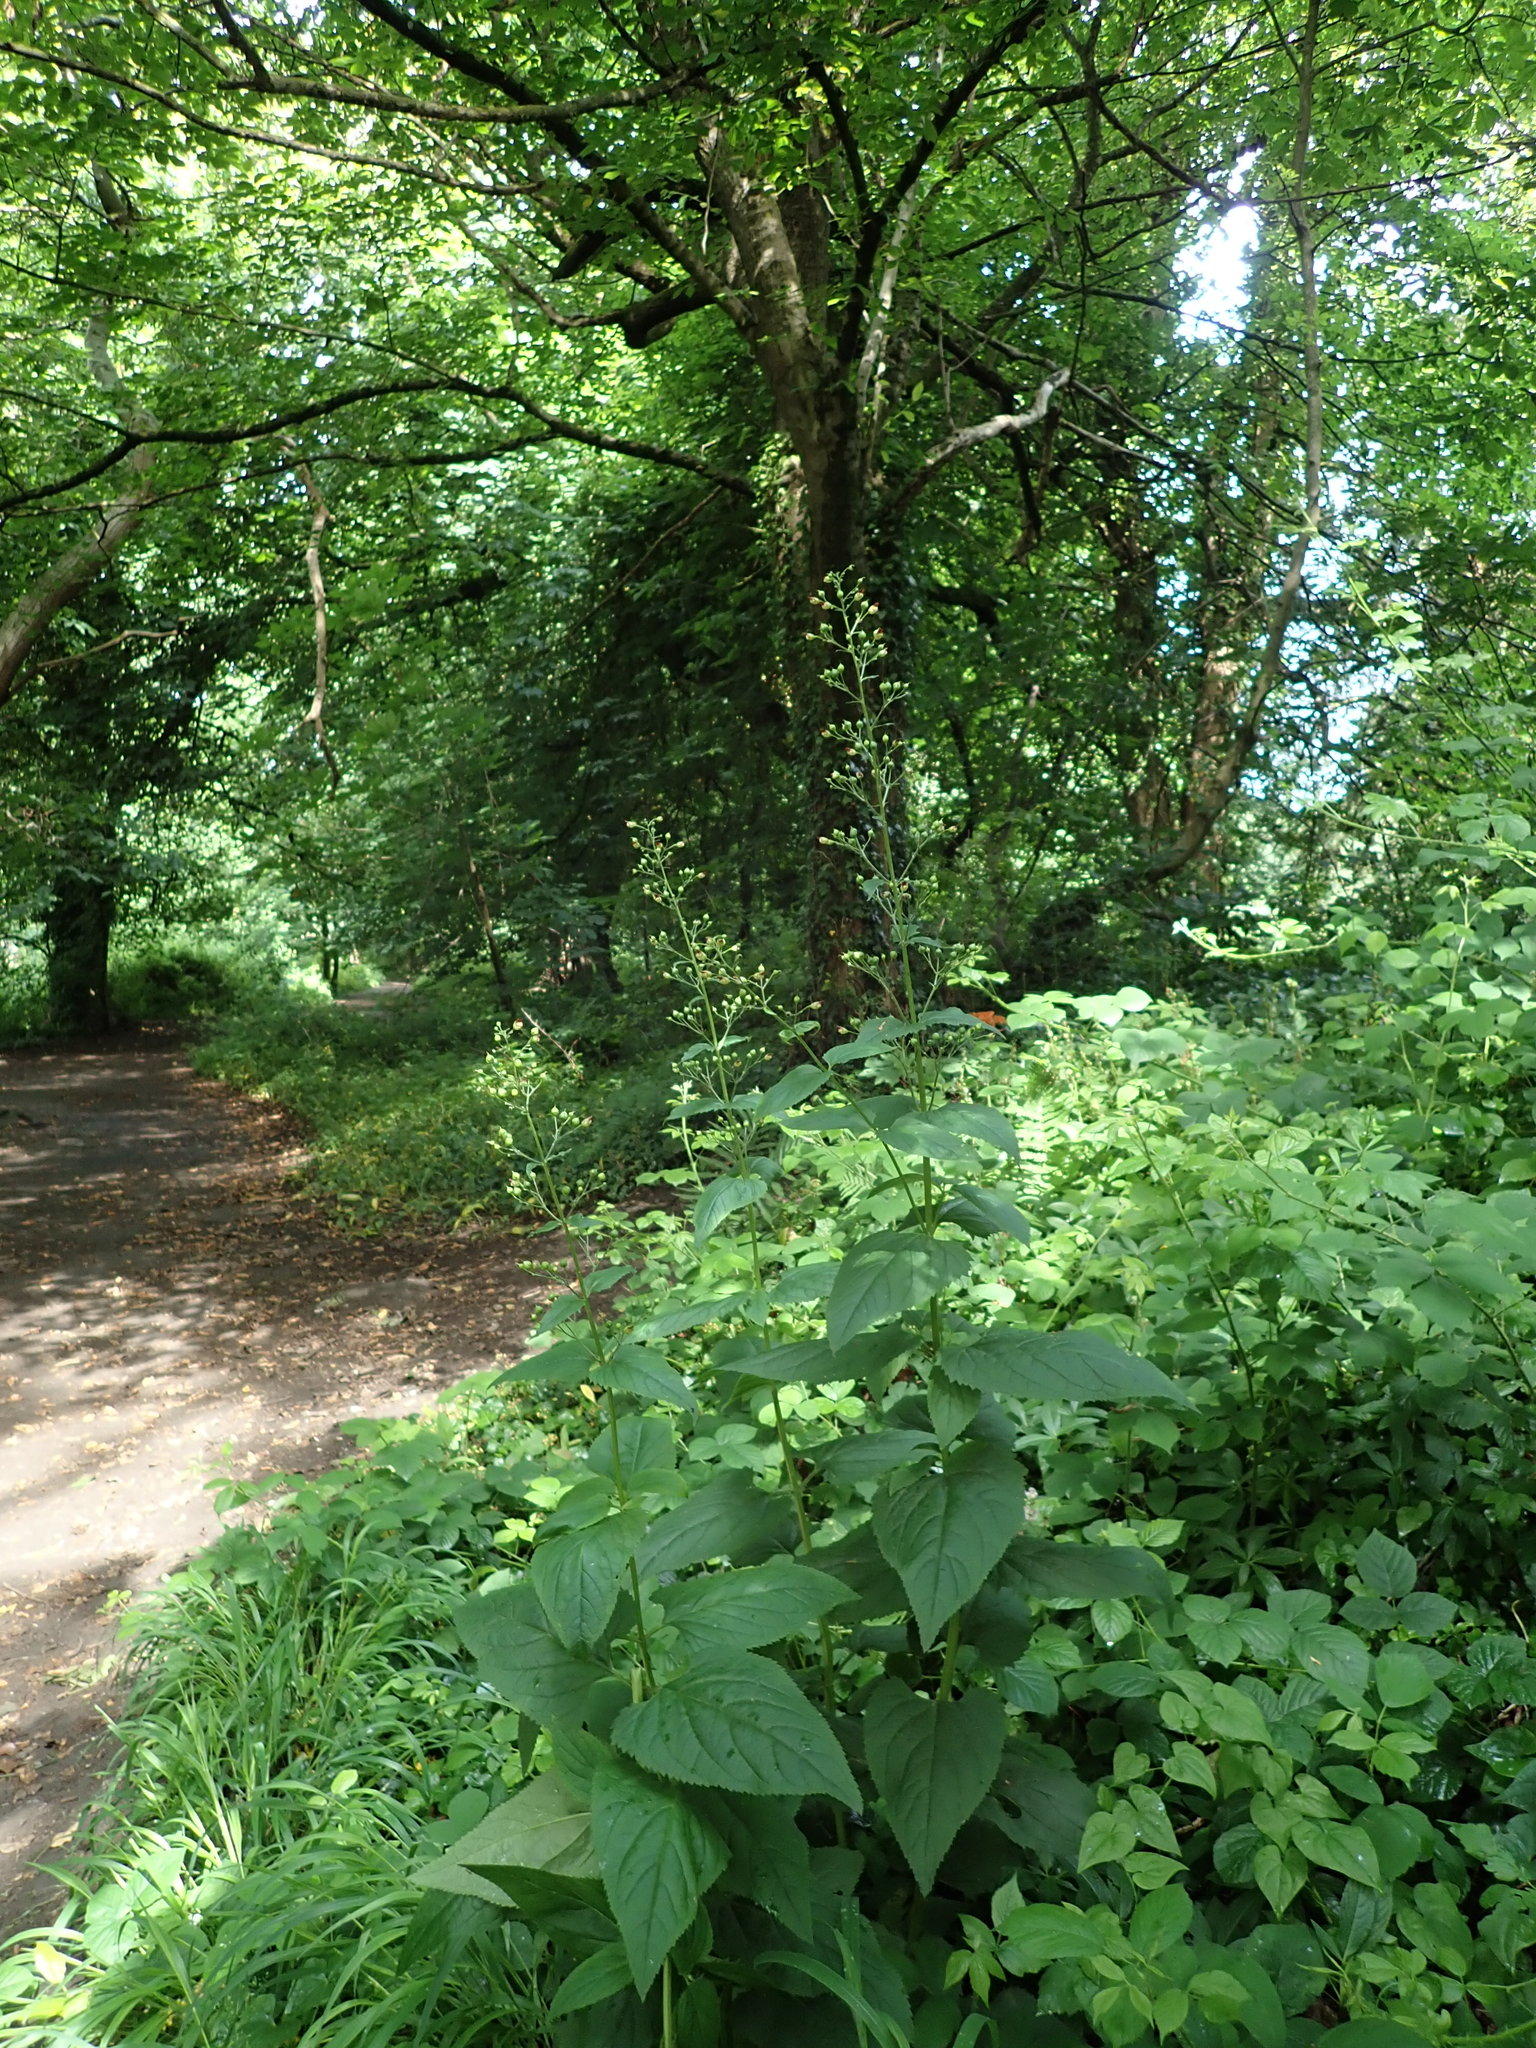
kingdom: Plantae
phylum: Tracheophyta
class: Magnoliopsida
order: Lamiales
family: Scrophulariaceae
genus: Scrophularia
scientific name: Scrophularia nodosa
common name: Common figwort
